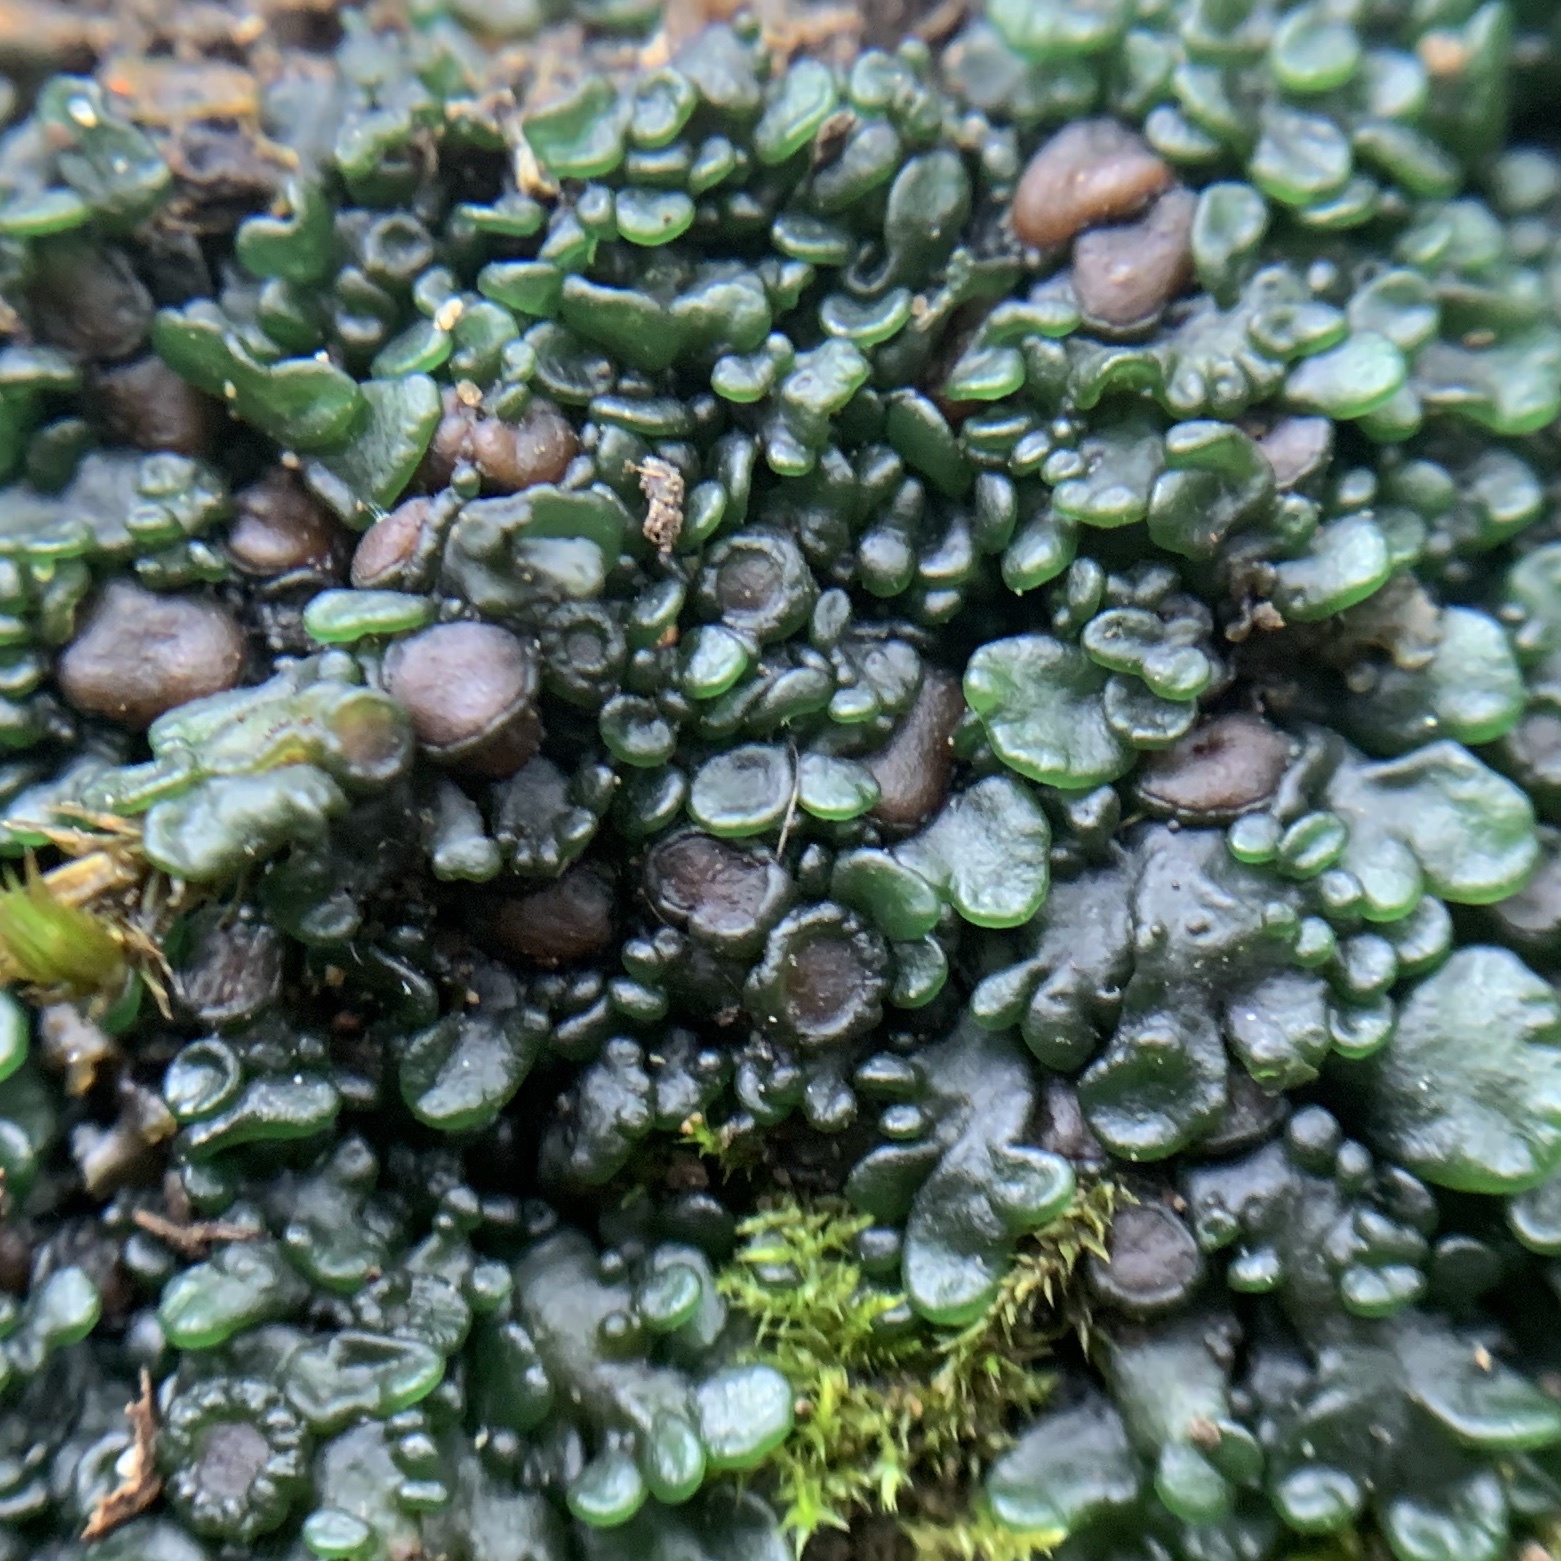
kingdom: Fungi
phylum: Ascomycota
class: Lecanoromycetes
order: Peltigerales
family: Collemataceae
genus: Enchylium
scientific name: Enchylium polycarpon
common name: Shaly jelly lichen
